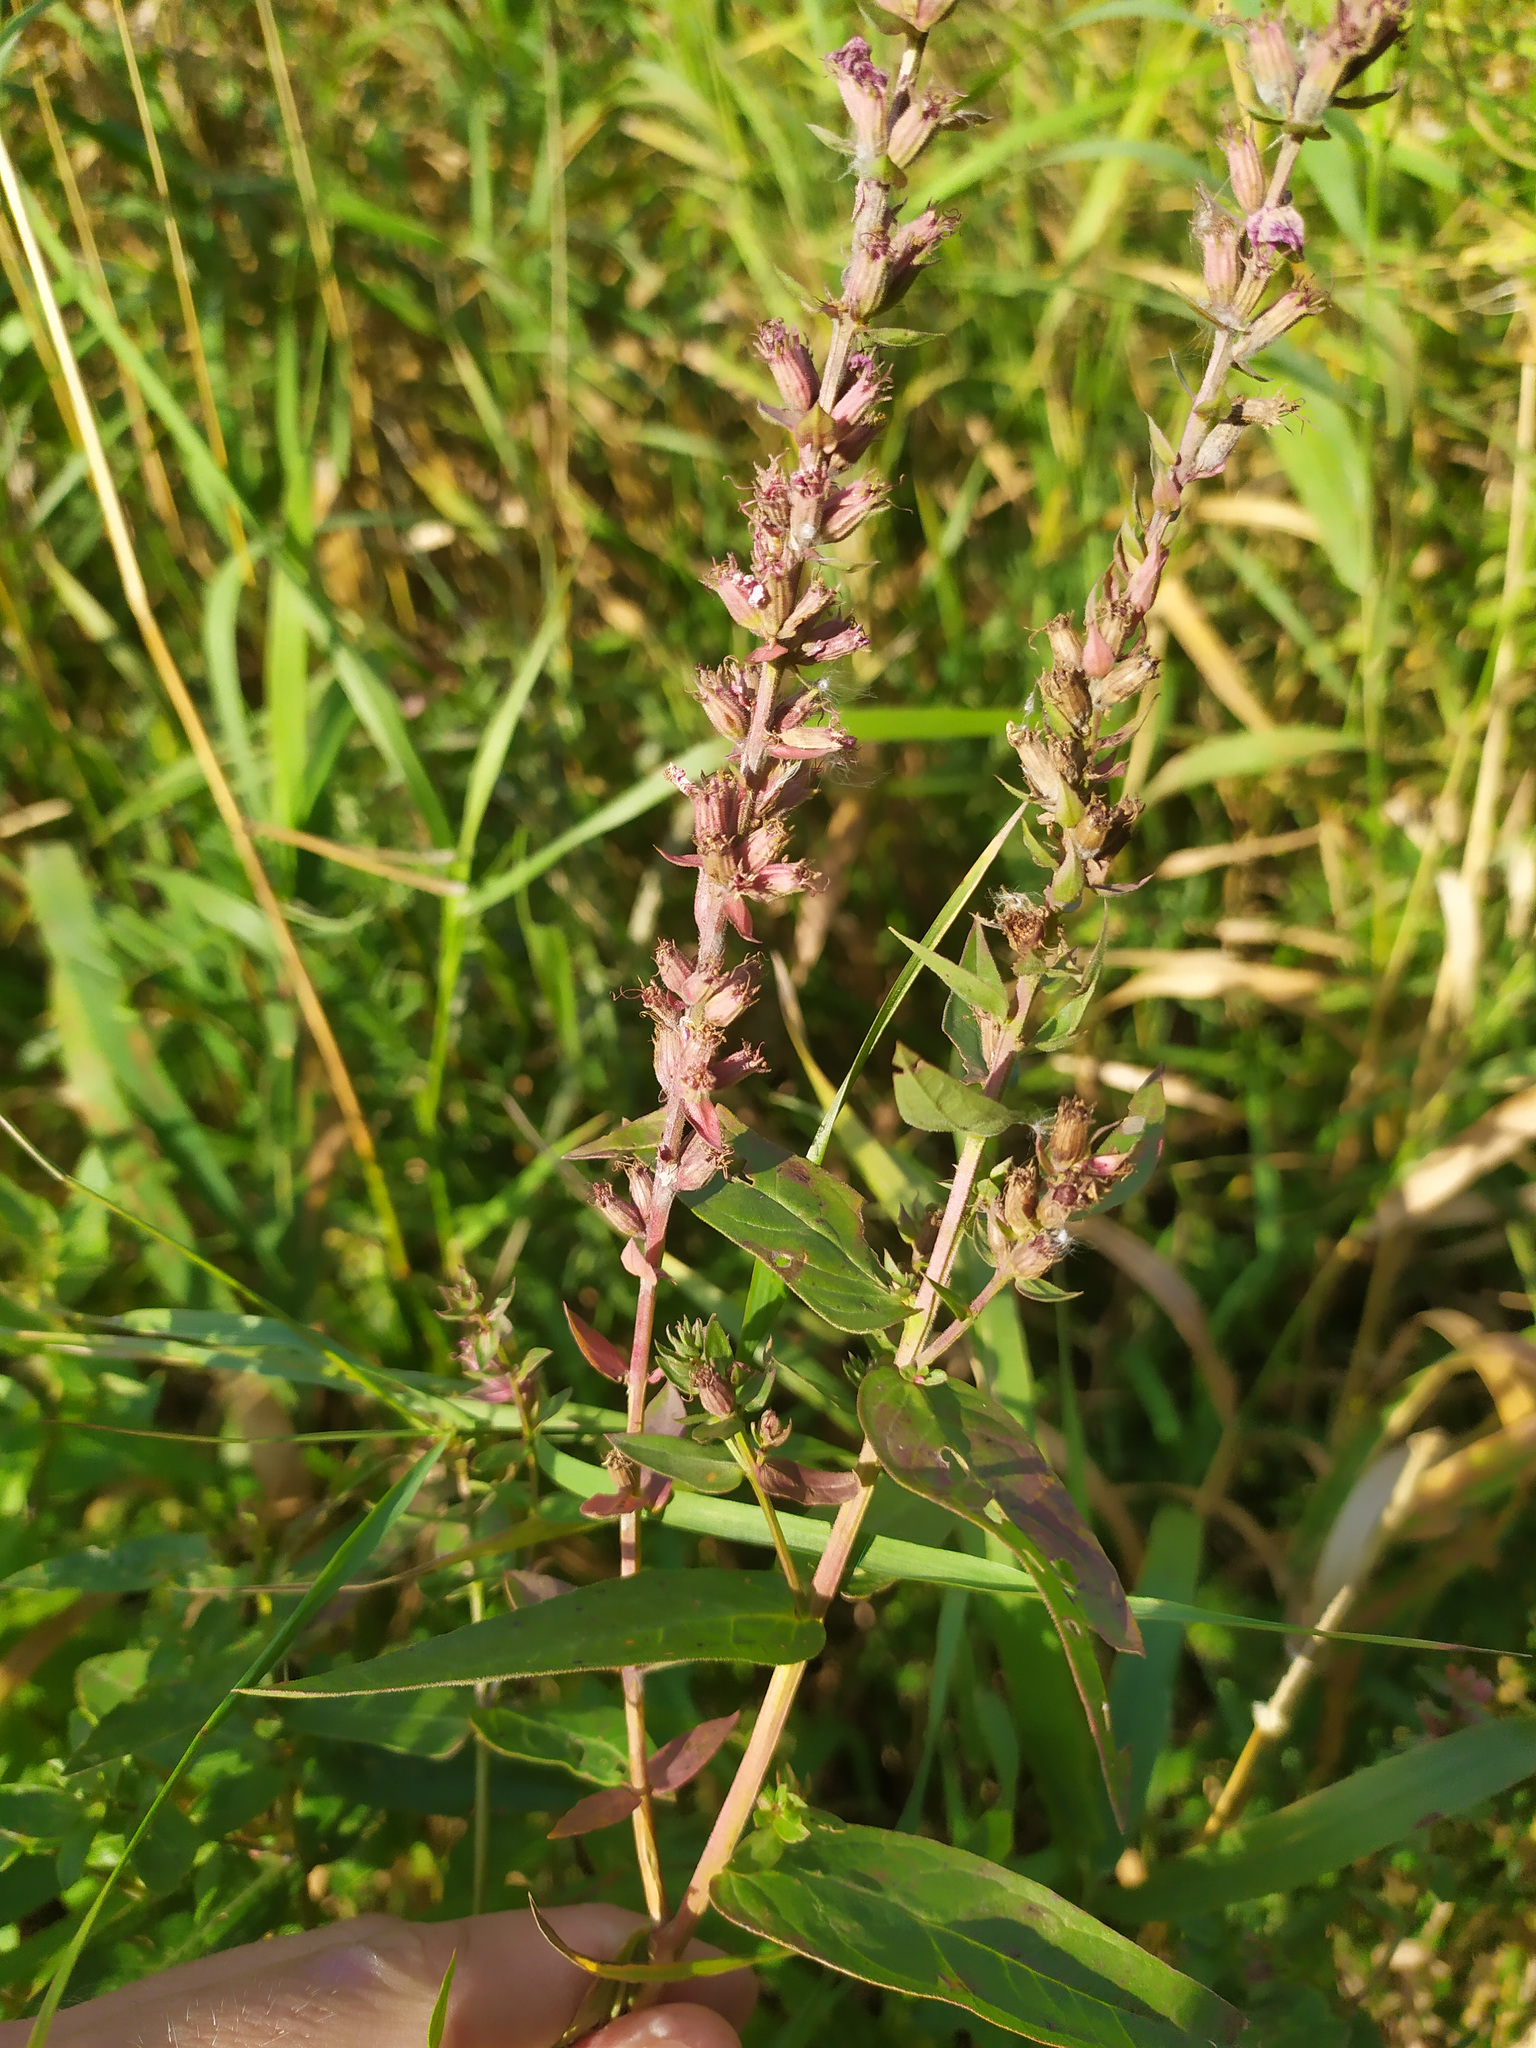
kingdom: Plantae
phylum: Tracheophyta
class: Magnoliopsida
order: Myrtales
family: Lythraceae
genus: Lythrum
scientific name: Lythrum salicaria
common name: Purple loosestrife
